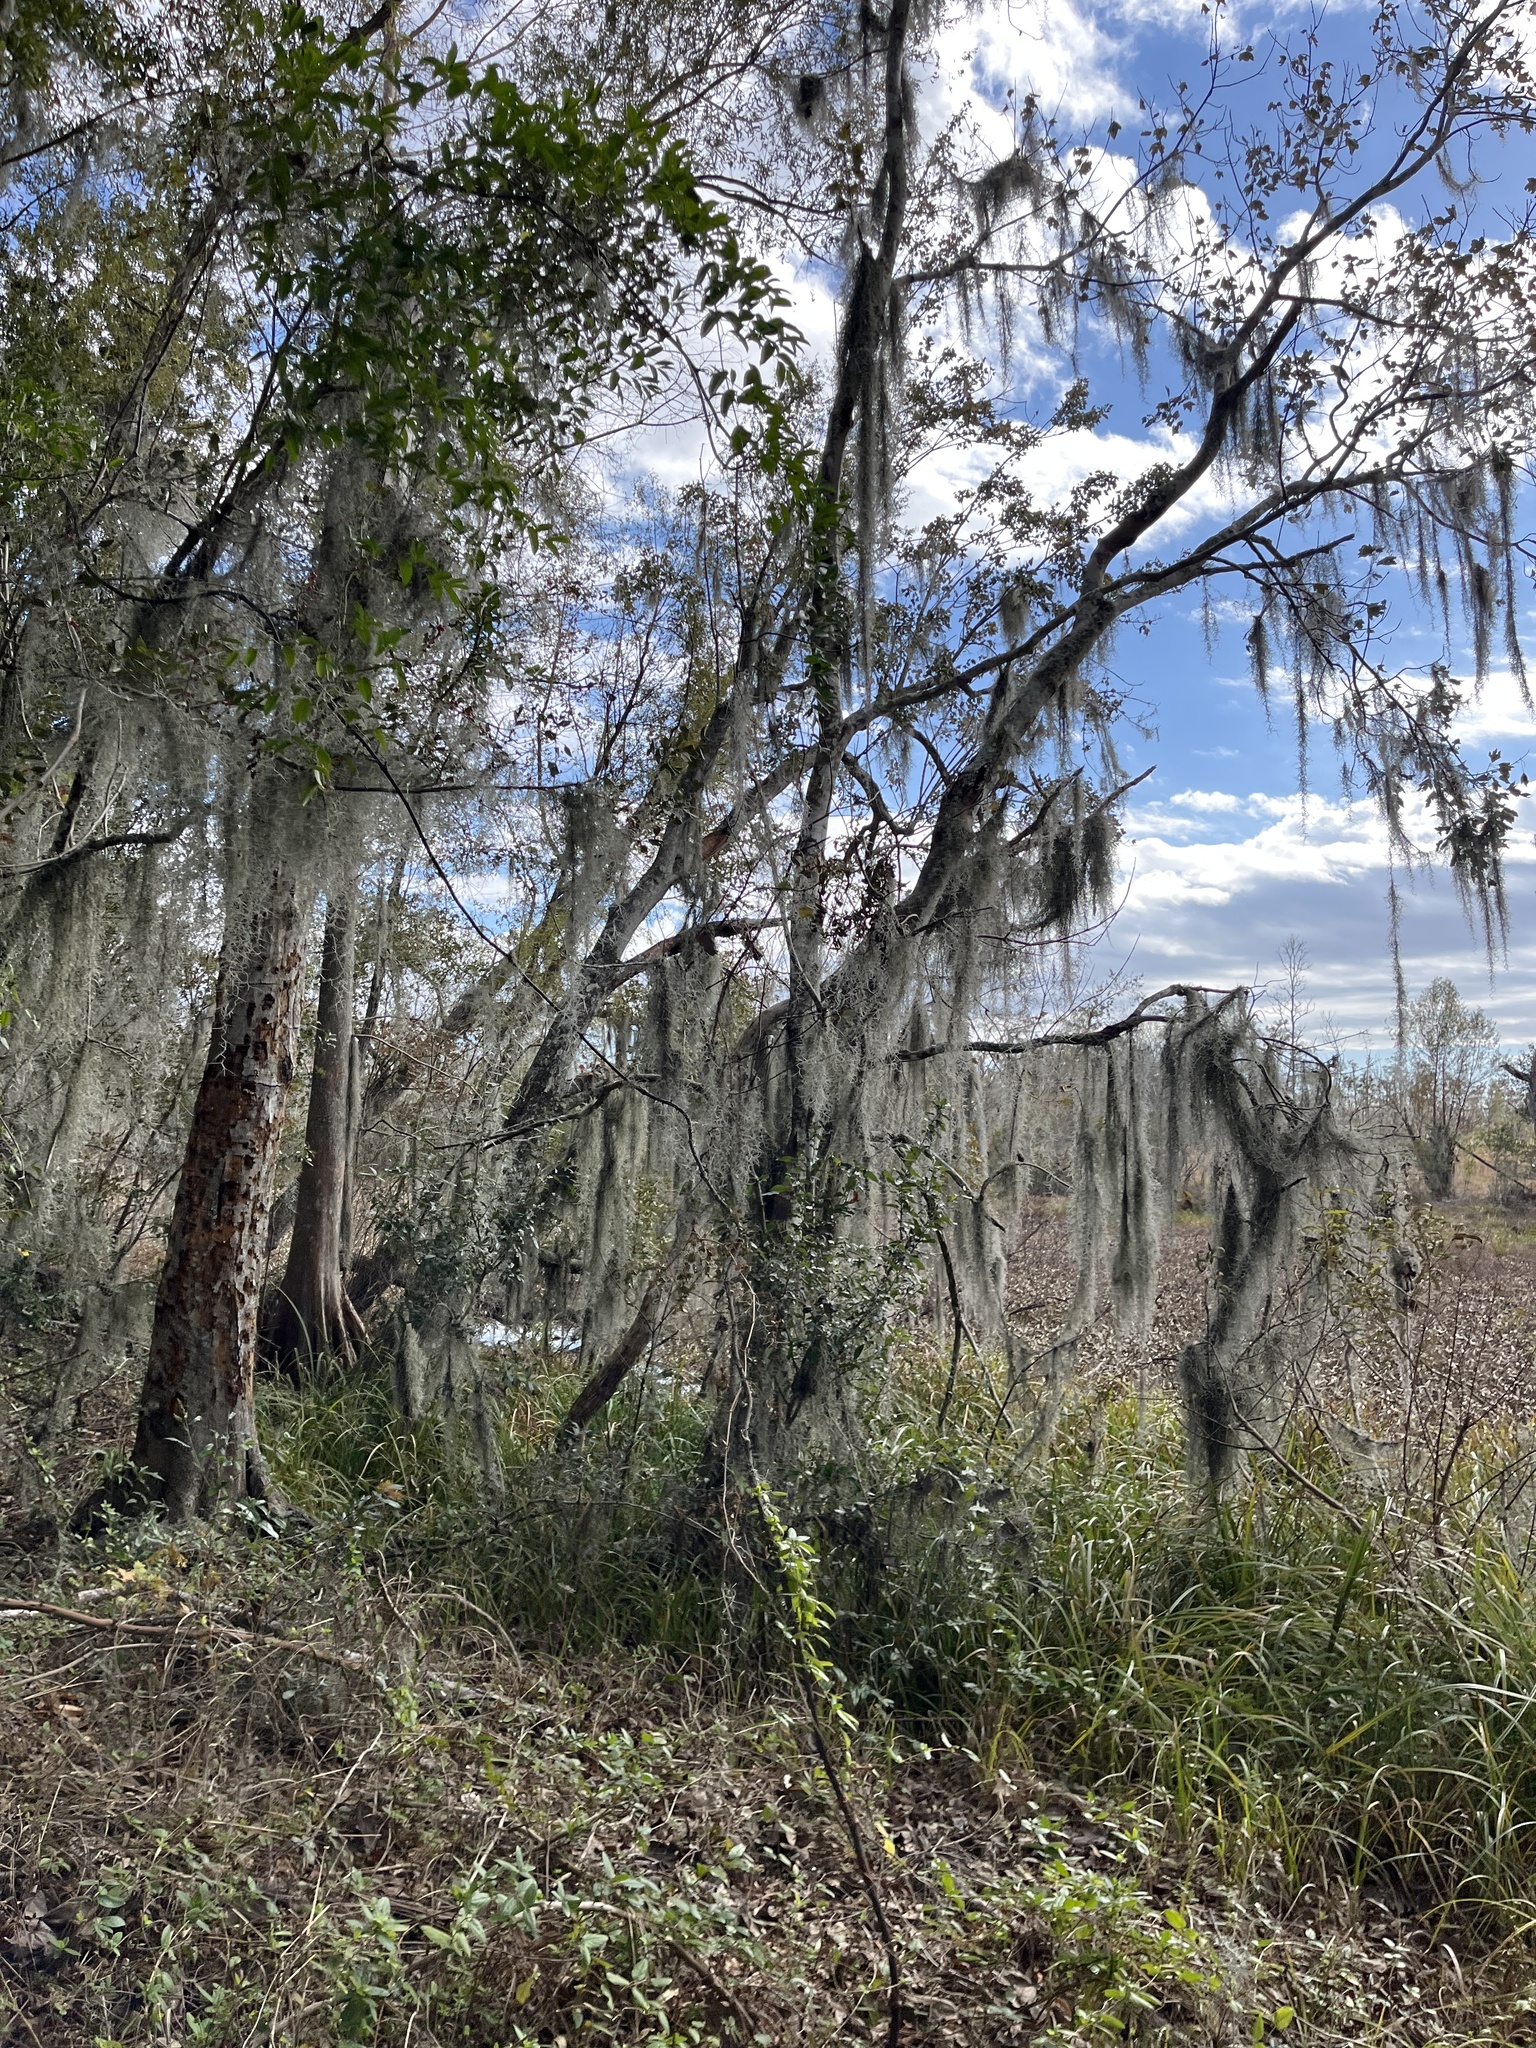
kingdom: Plantae
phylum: Tracheophyta
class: Liliopsida
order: Poales
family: Bromeliaceae
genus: Tillandsia
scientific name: Tillandsia usneoides
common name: Spanish moss
